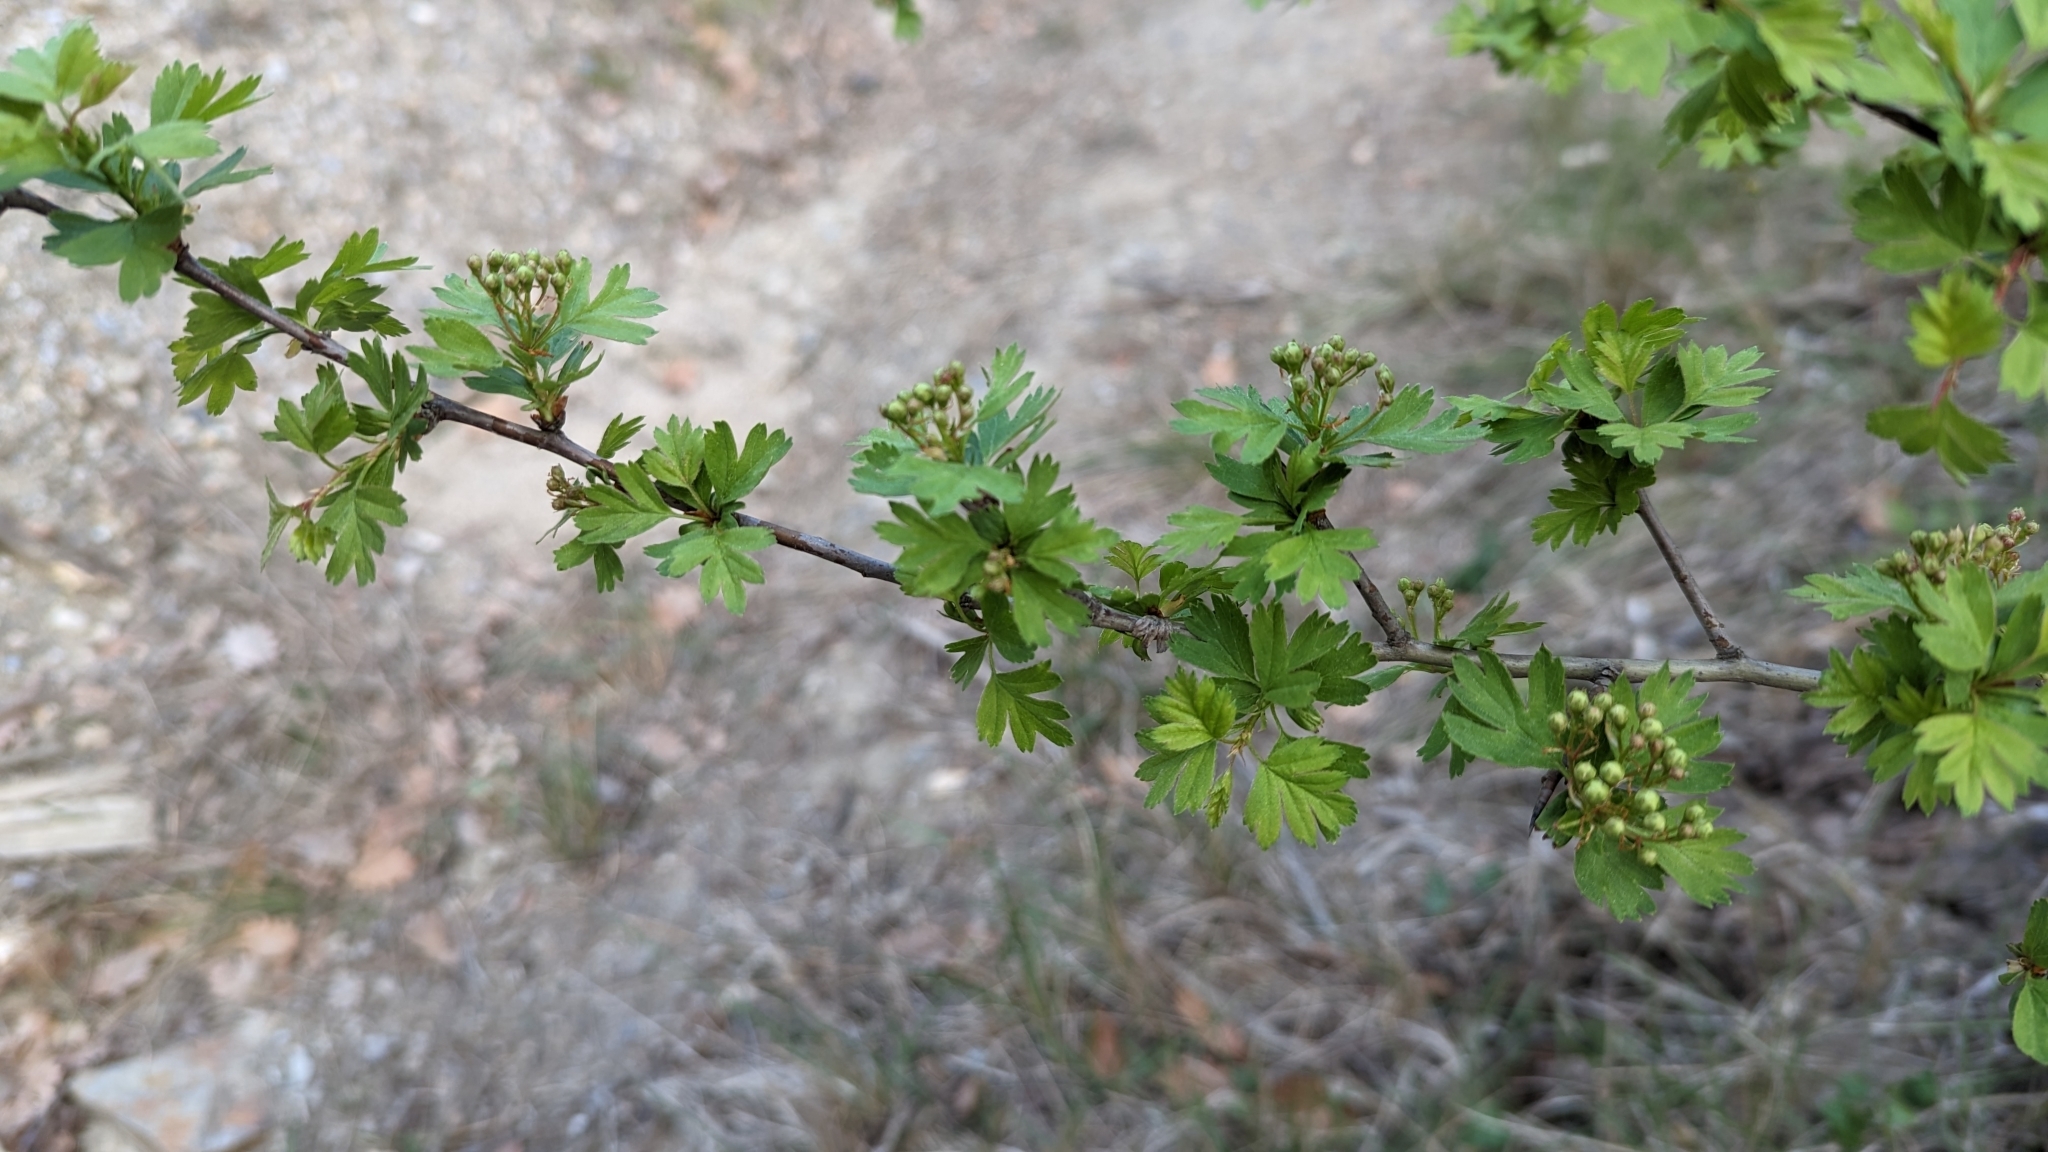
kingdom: Plantae
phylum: Tracheophyta
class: Magnoliopsida
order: Rosales
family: Rosaceae
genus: Crataegus
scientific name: Crataegus monogyna
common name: Hawthorn
